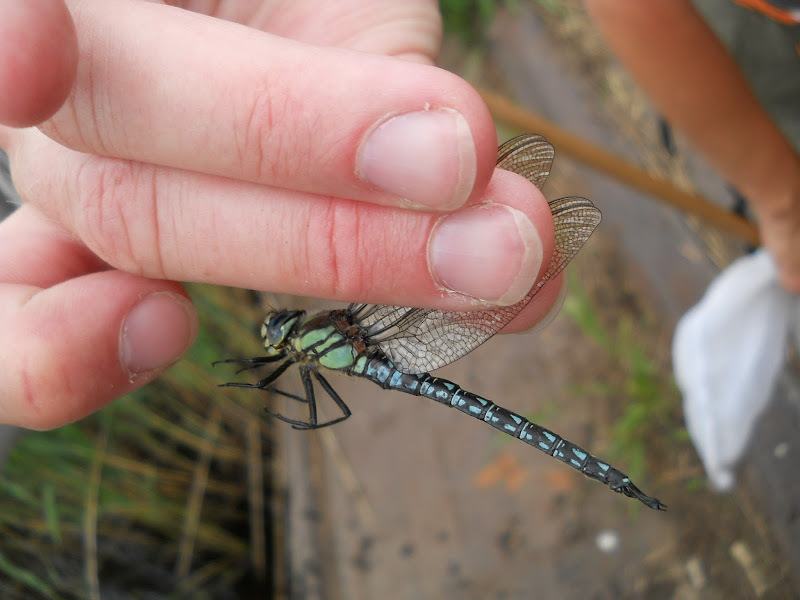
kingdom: Animalia
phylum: Arthropoda
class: Insecta
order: Odonata
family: Aeshnidae
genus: Brachytron
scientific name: Brachytron pratense
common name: Hairy hawker
